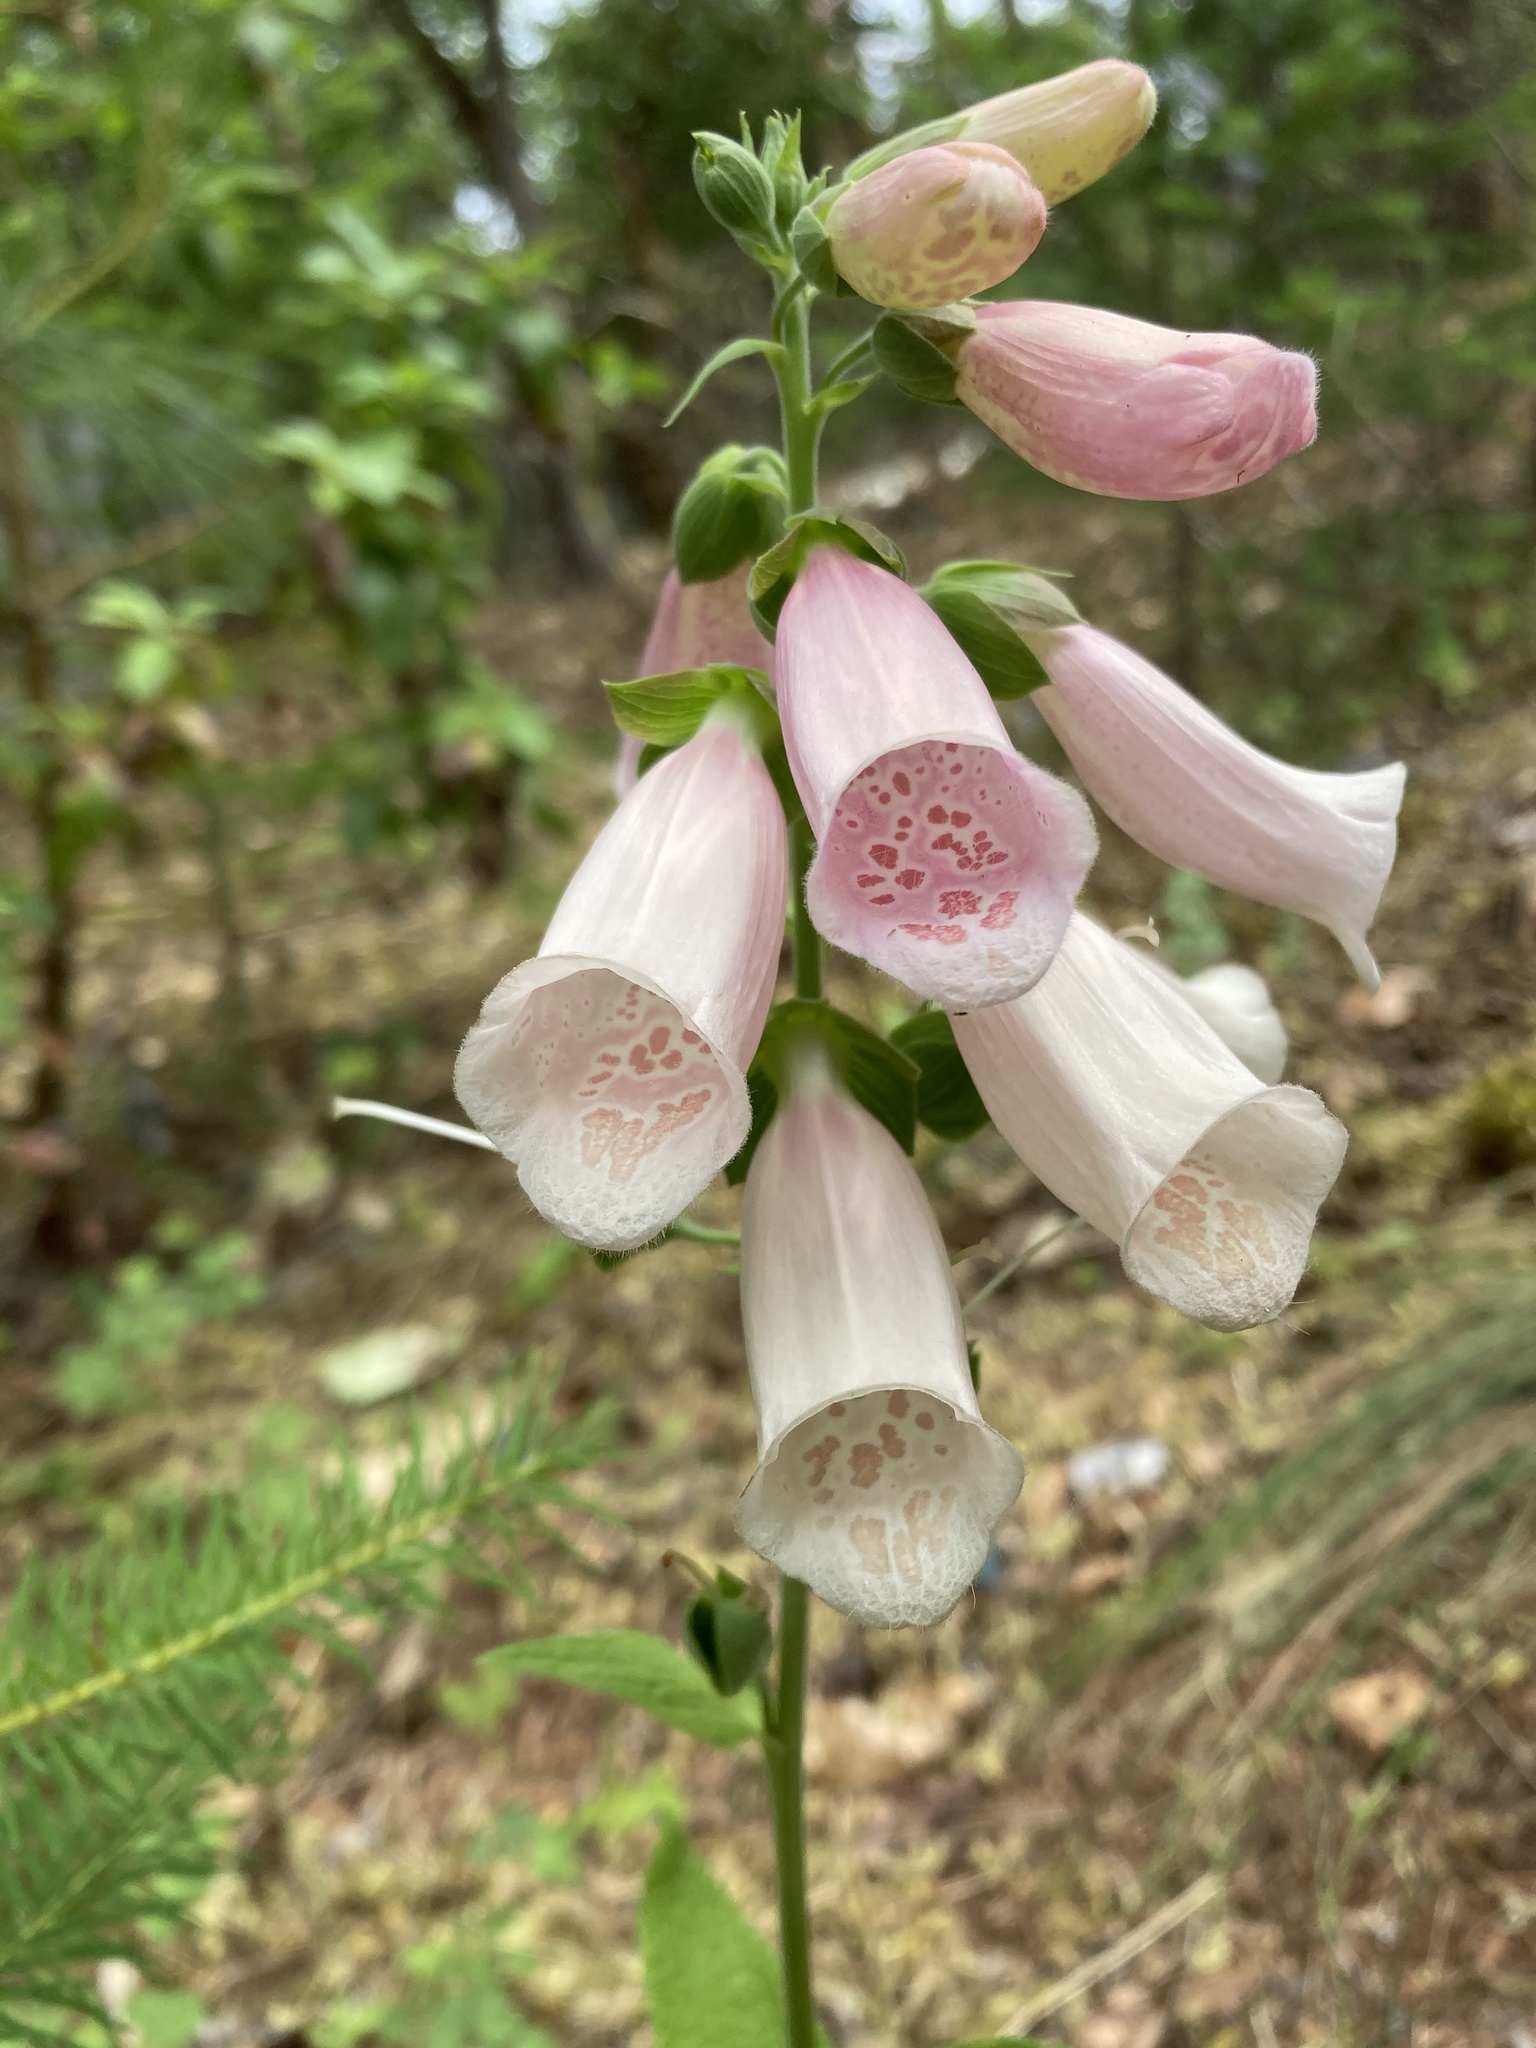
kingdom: Plantae
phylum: Tracheophyta
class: Magnoliopsida
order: Lamiales
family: Plantaginaceae
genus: Digitalis
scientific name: Digitalis purpurea
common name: Foxglove
